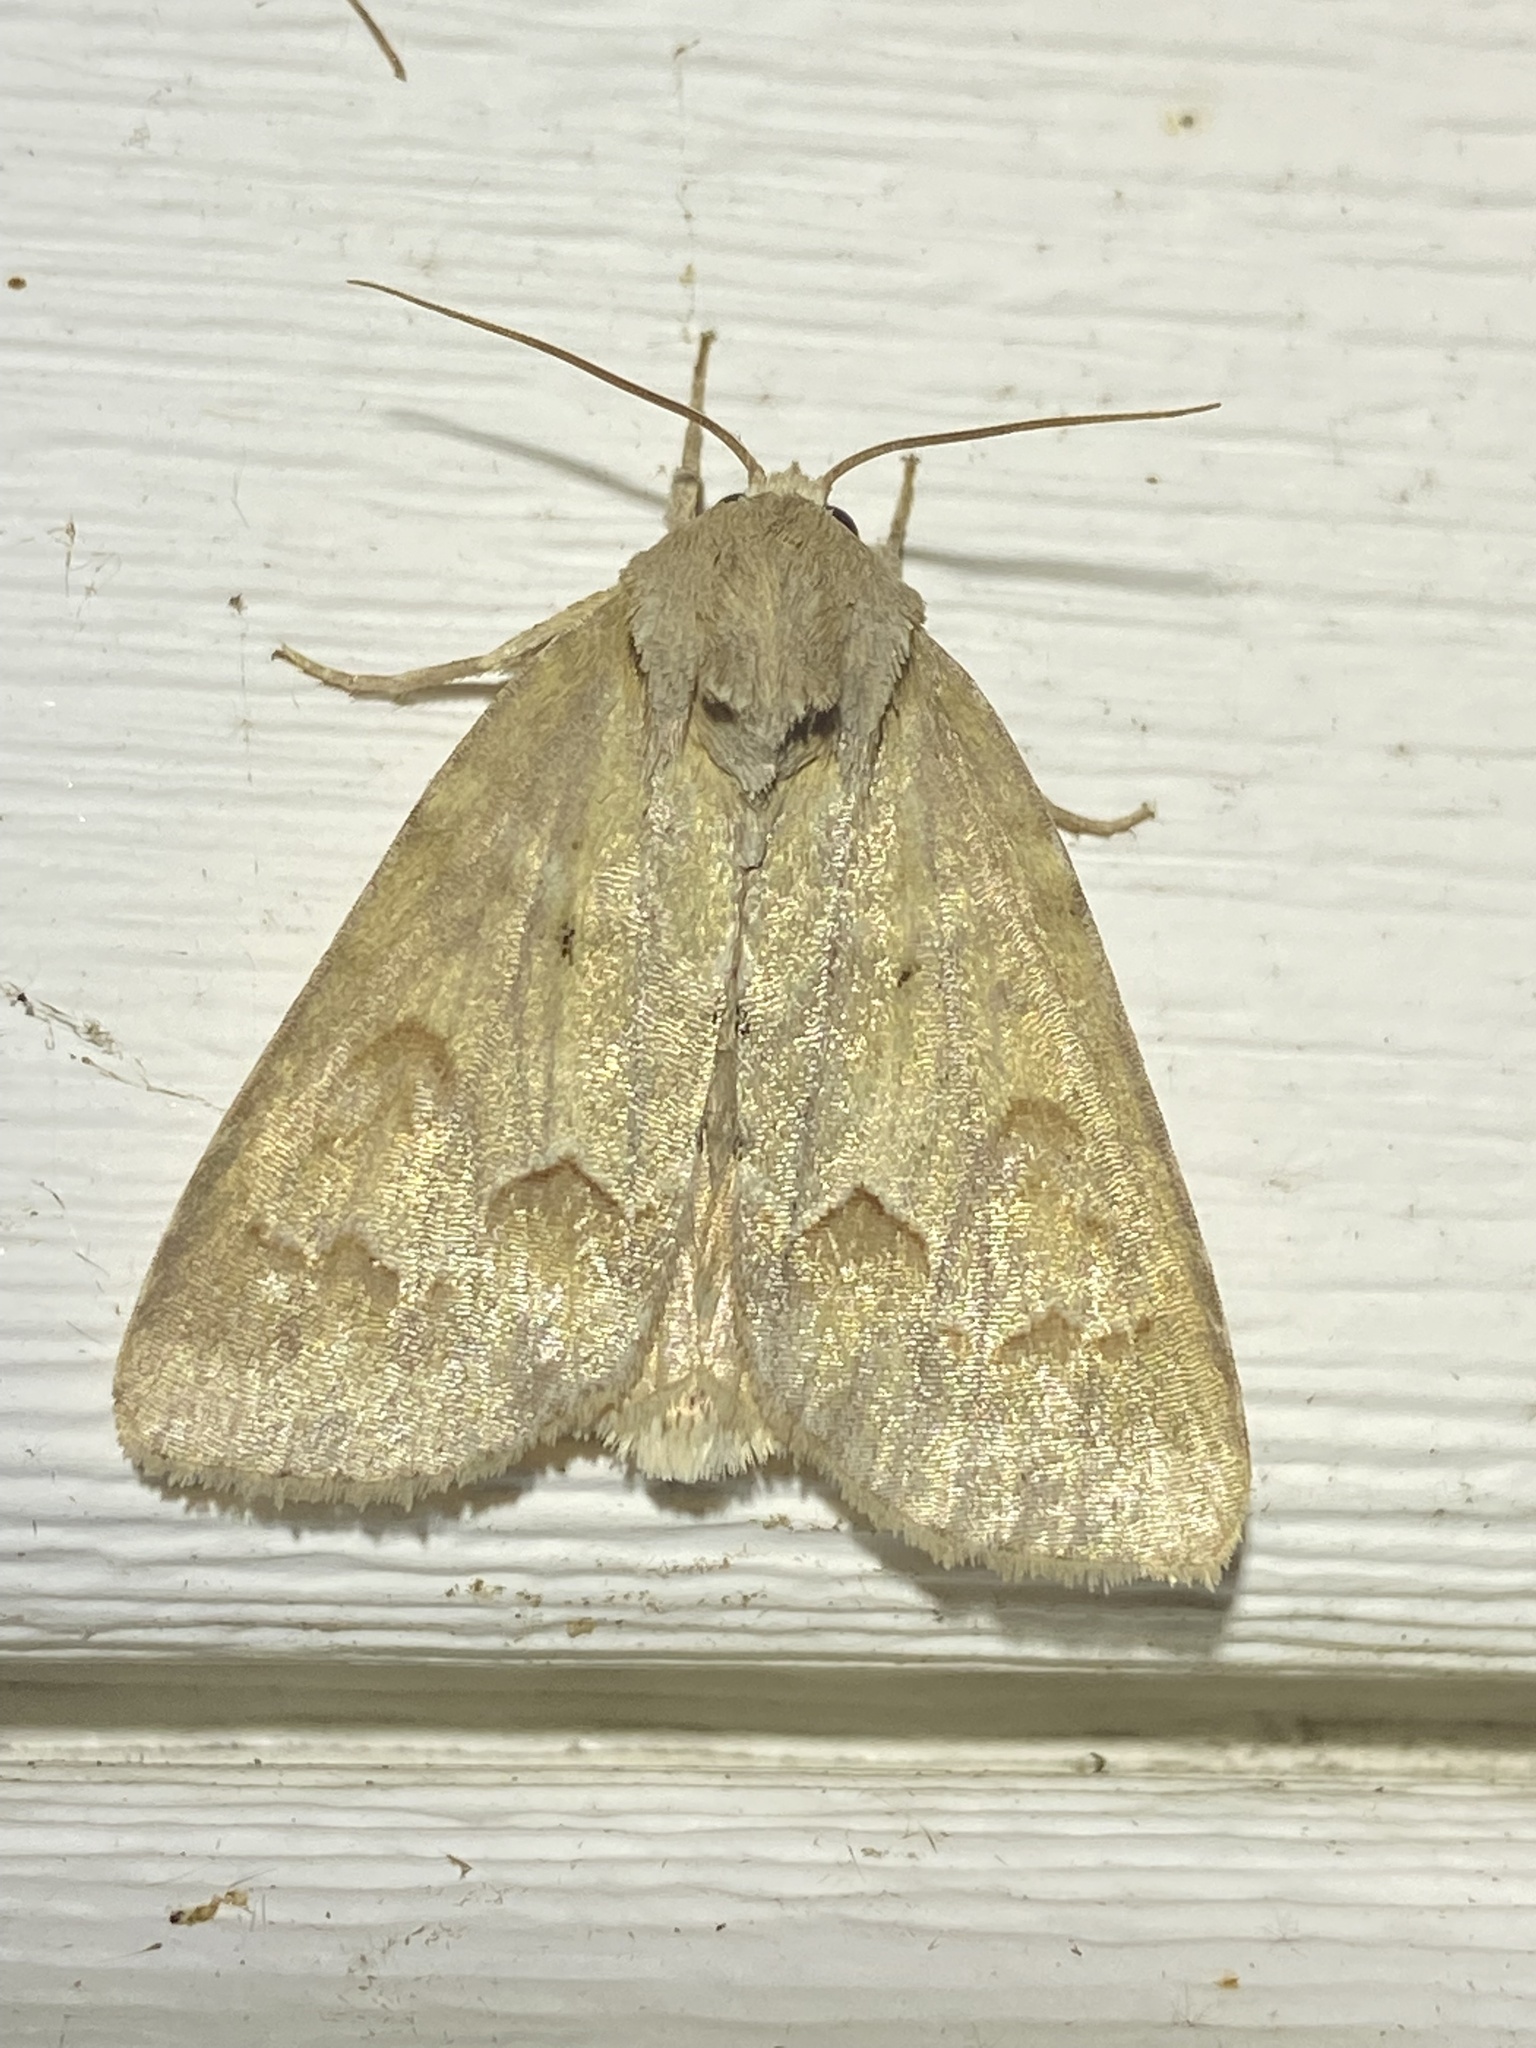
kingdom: Animalia
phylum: Arthropoda
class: Insecta
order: Lepidoptera
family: Noctuidae
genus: Acronicta
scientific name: Acronicta betulae
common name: Birch dagger moth
